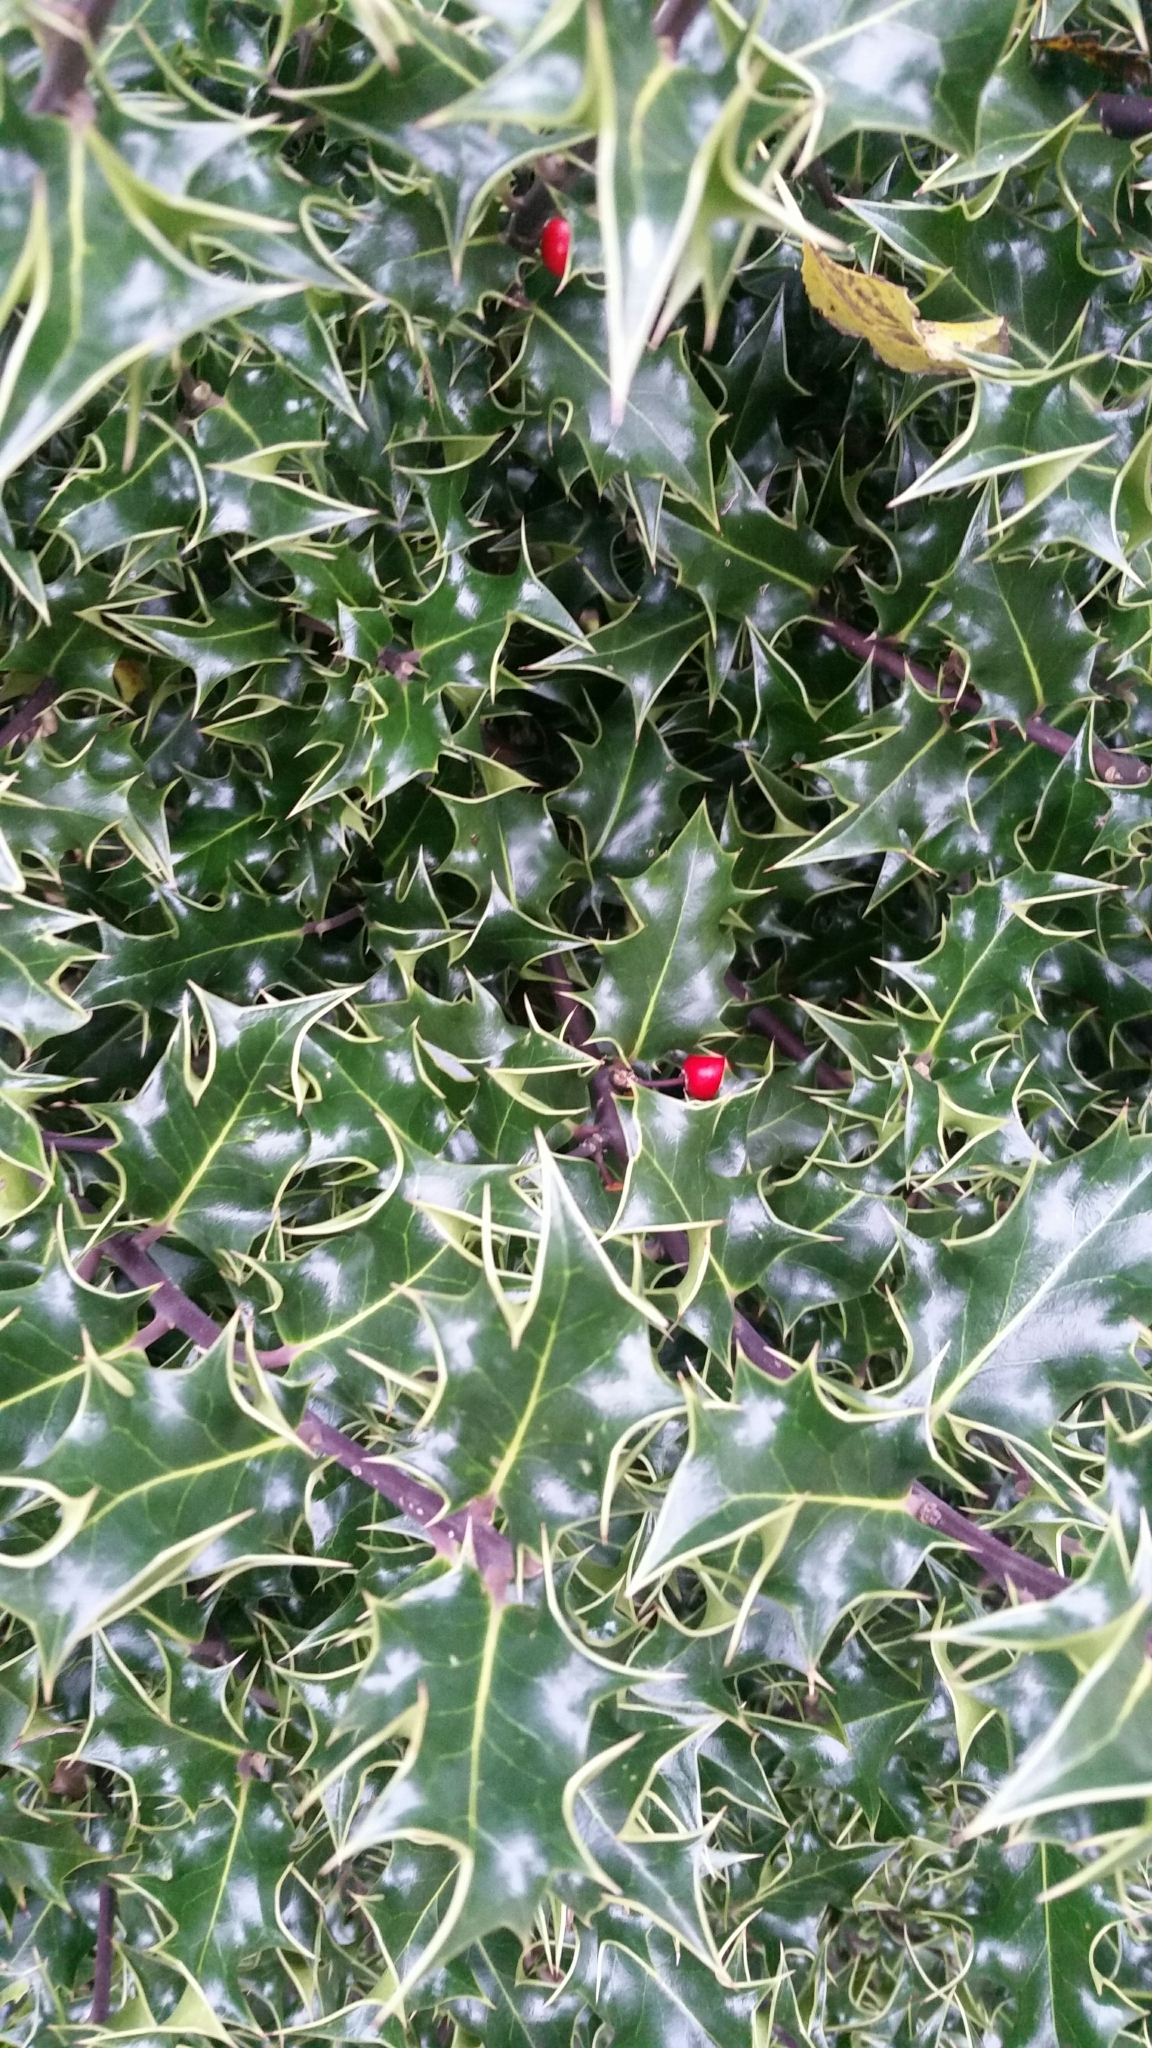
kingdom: Plantae
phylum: Tracheophyta
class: Magnoliopsida
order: Aquifoliales
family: Aquifoliaceae
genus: Ilex
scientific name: Ilex aquifolium
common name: English holly
